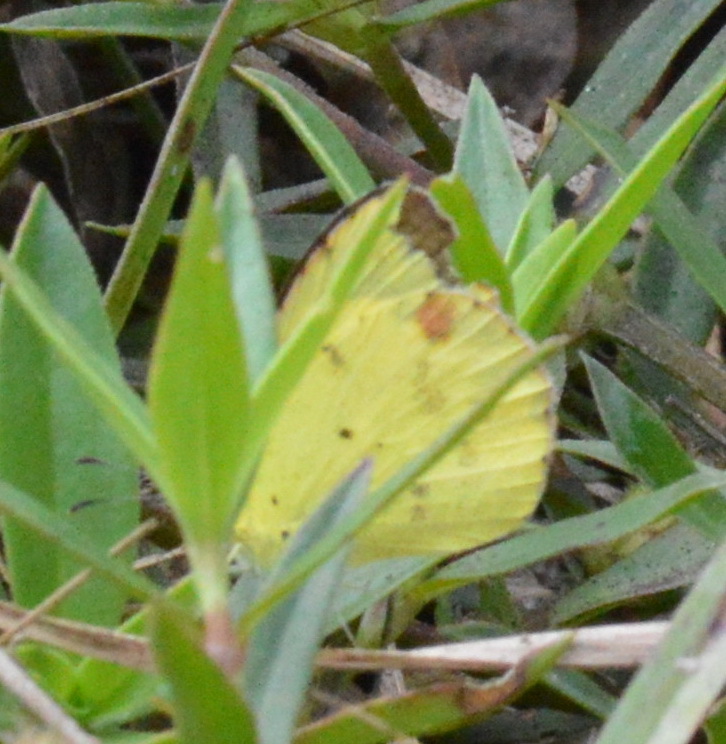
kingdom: Animalia
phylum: Arthropoda
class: Insecta
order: Lepidoptera
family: Pieridae
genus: Pyrisitia
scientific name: Pyrisitia lisa
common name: Little yellow
